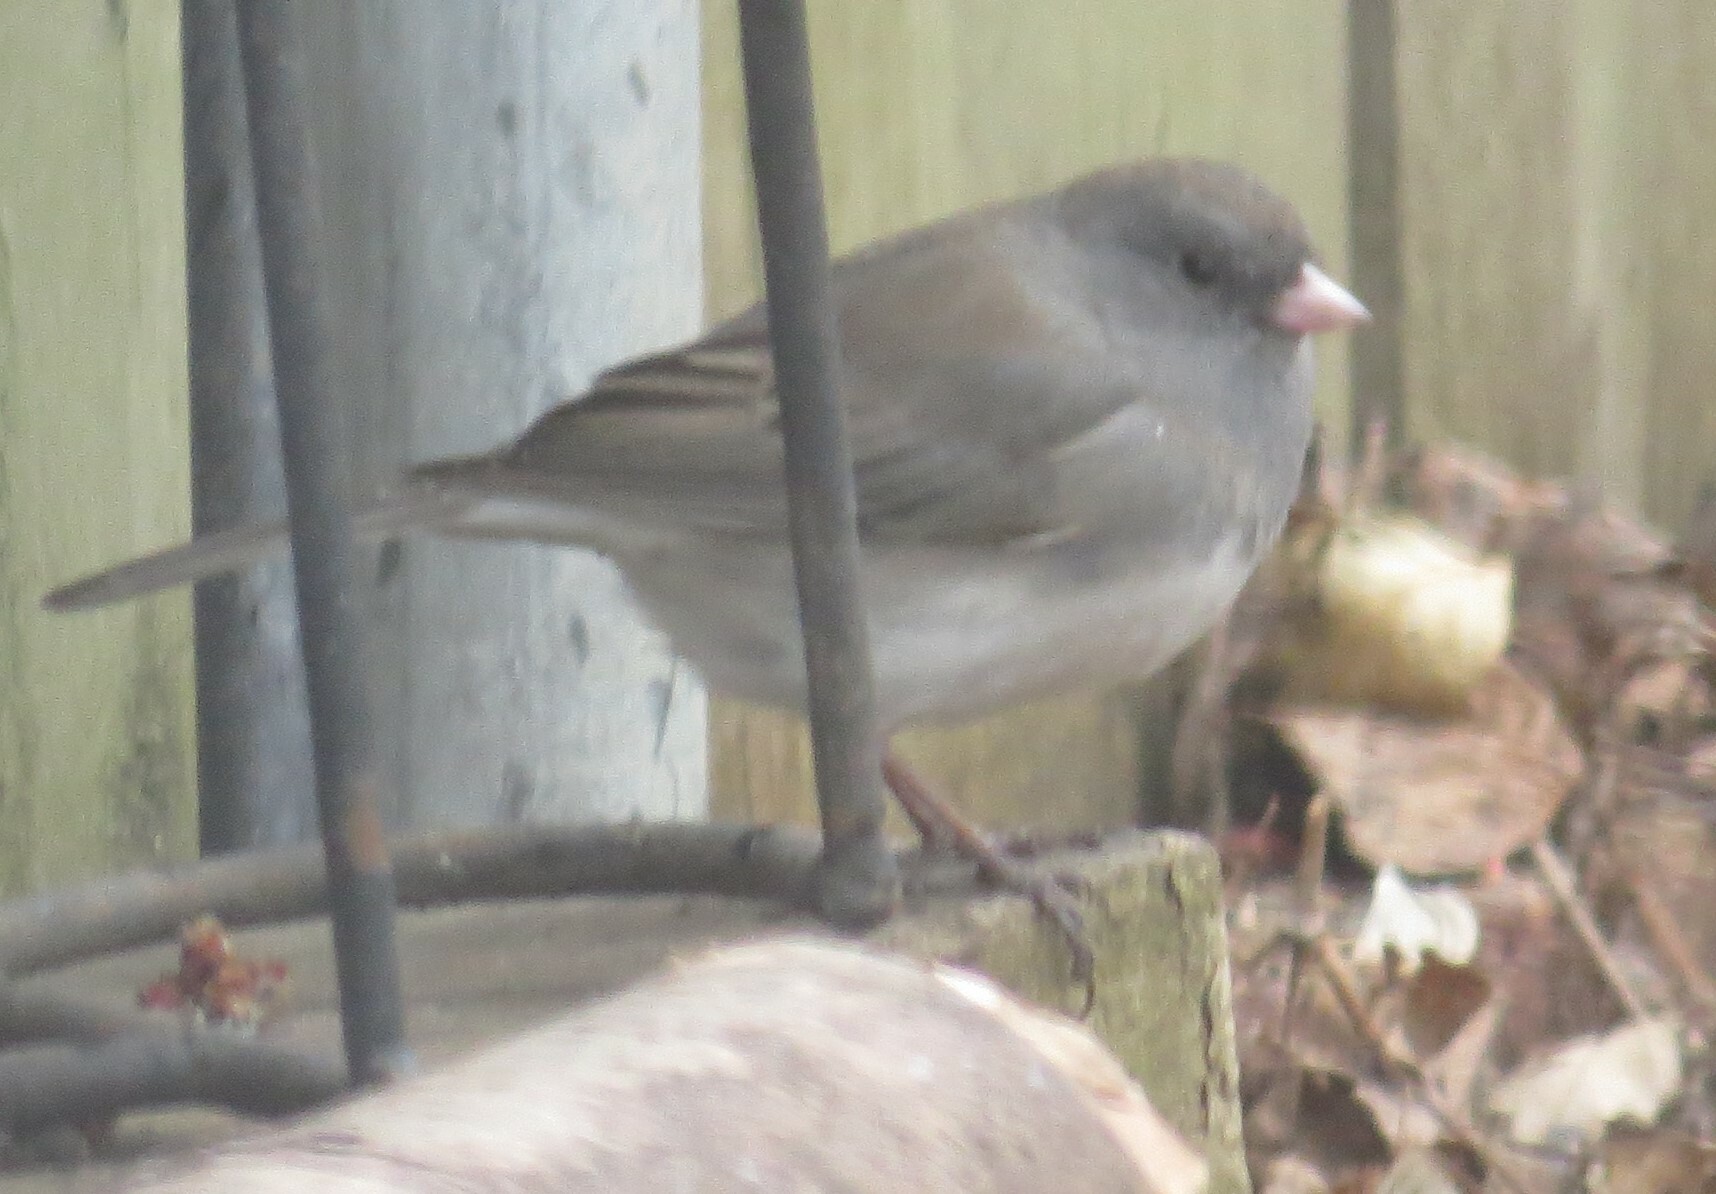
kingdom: Animalia
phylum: Chordata
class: Aves
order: Passeriformes
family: Passerellidae
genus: Junco
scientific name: Junco hyemalis
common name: Dark-eyed junco
